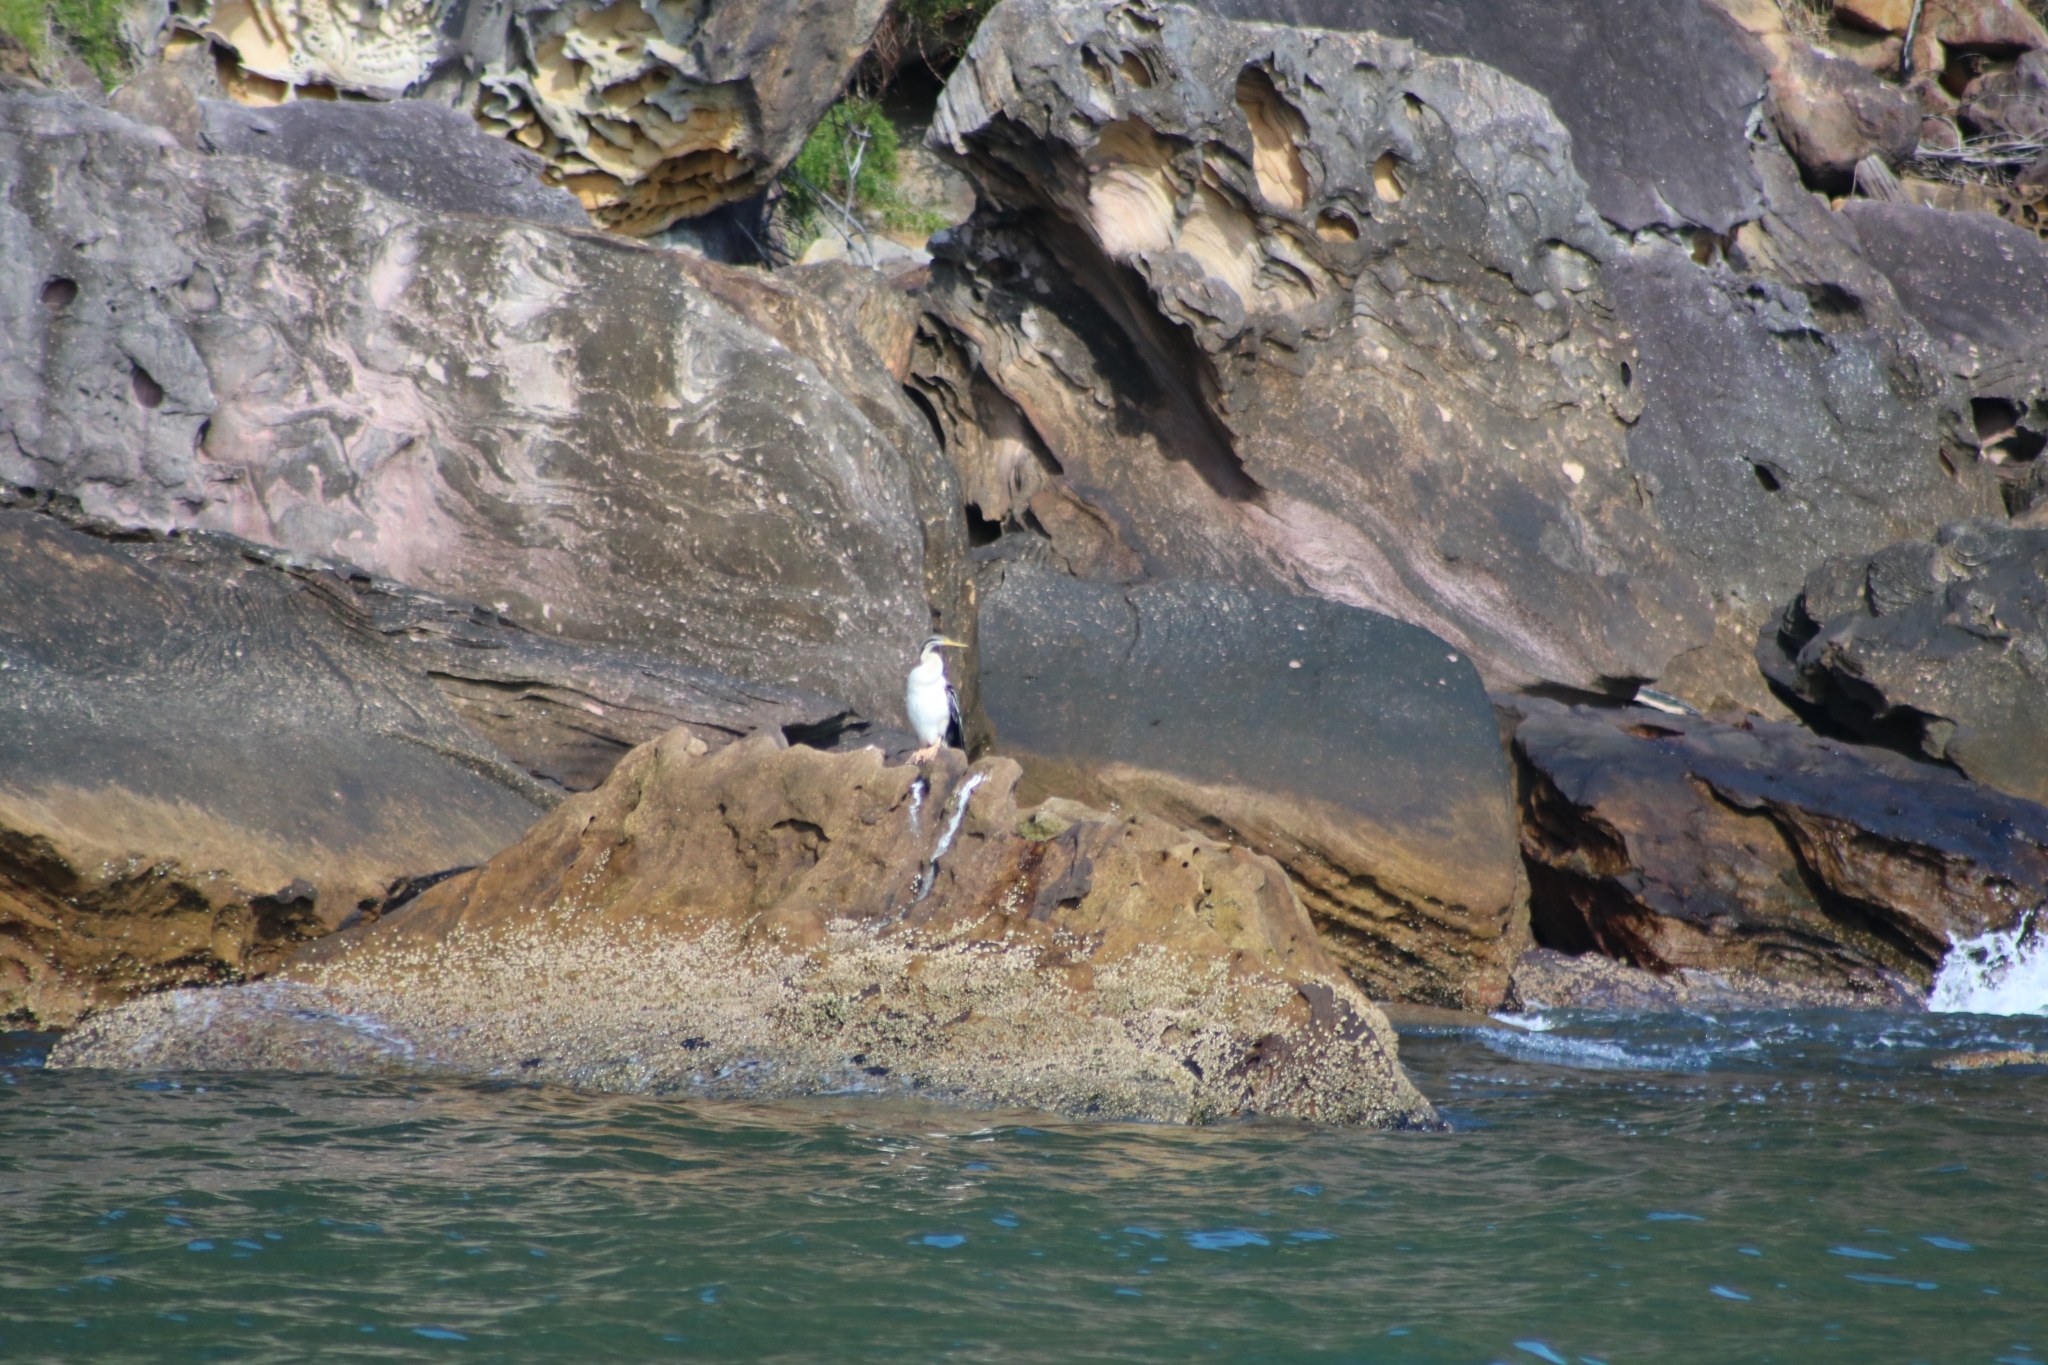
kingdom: Animalia
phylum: Chordata
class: Aves
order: Suliformes
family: Anhingidae
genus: Anhinga
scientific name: Anhinga novaehollandiae
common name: Australasian darter
